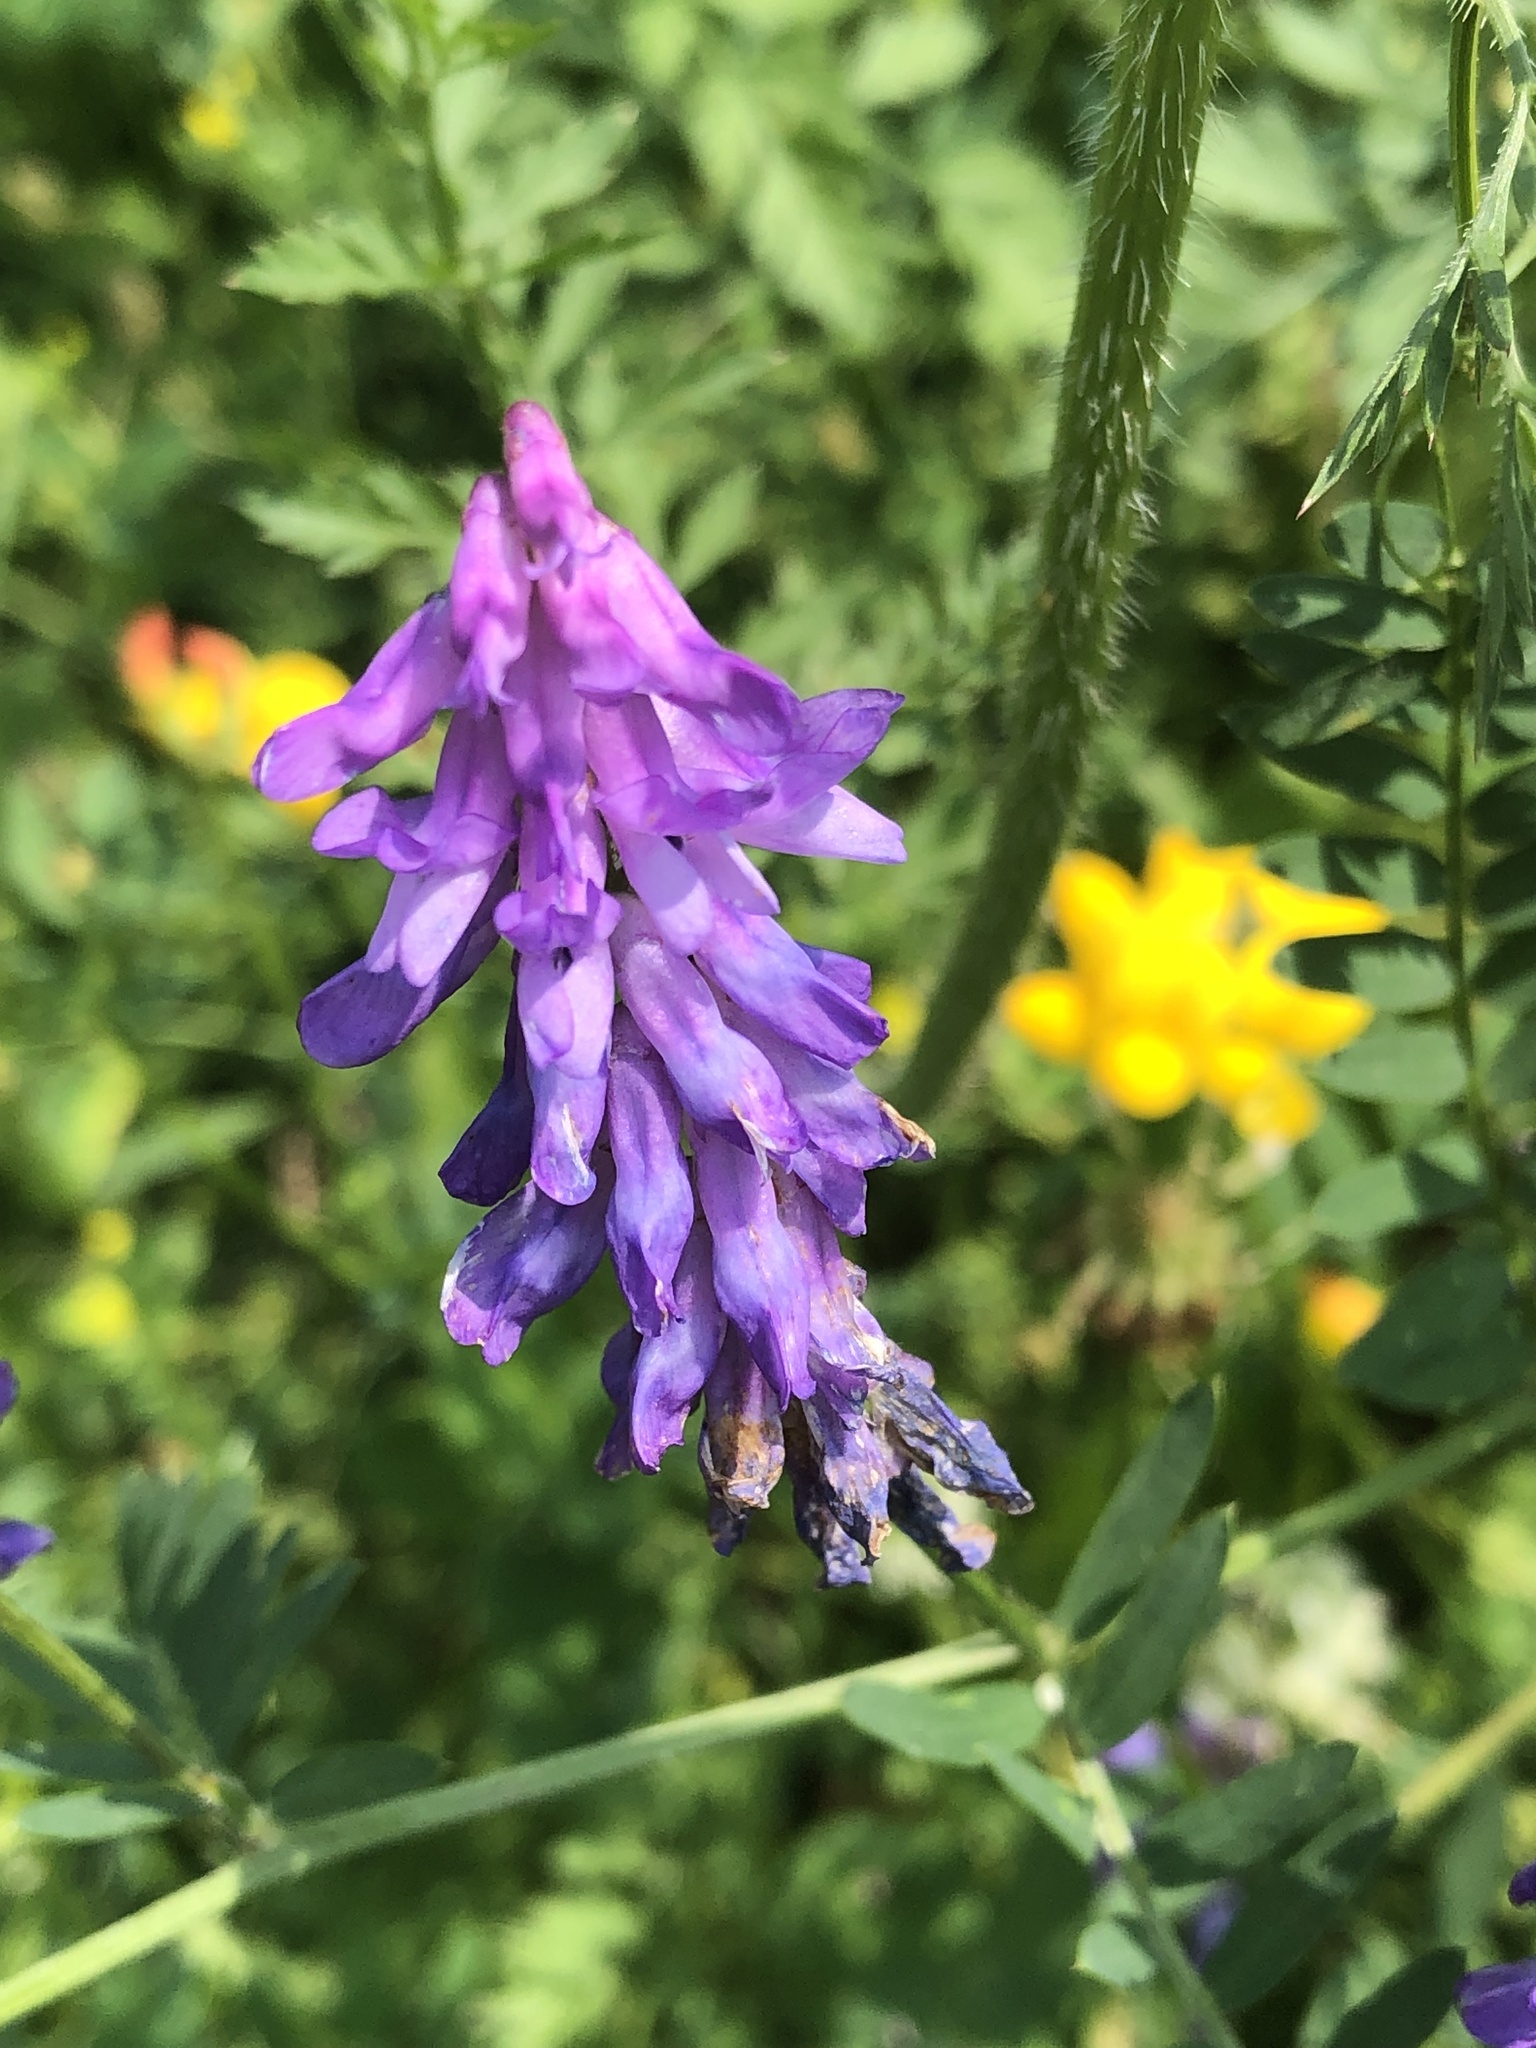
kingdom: Plantae
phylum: Tracheophyta
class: Magnoliopsida
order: Fabales
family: Fabaceae
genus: Vicia
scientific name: Vicia cracca
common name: Bird vetch
